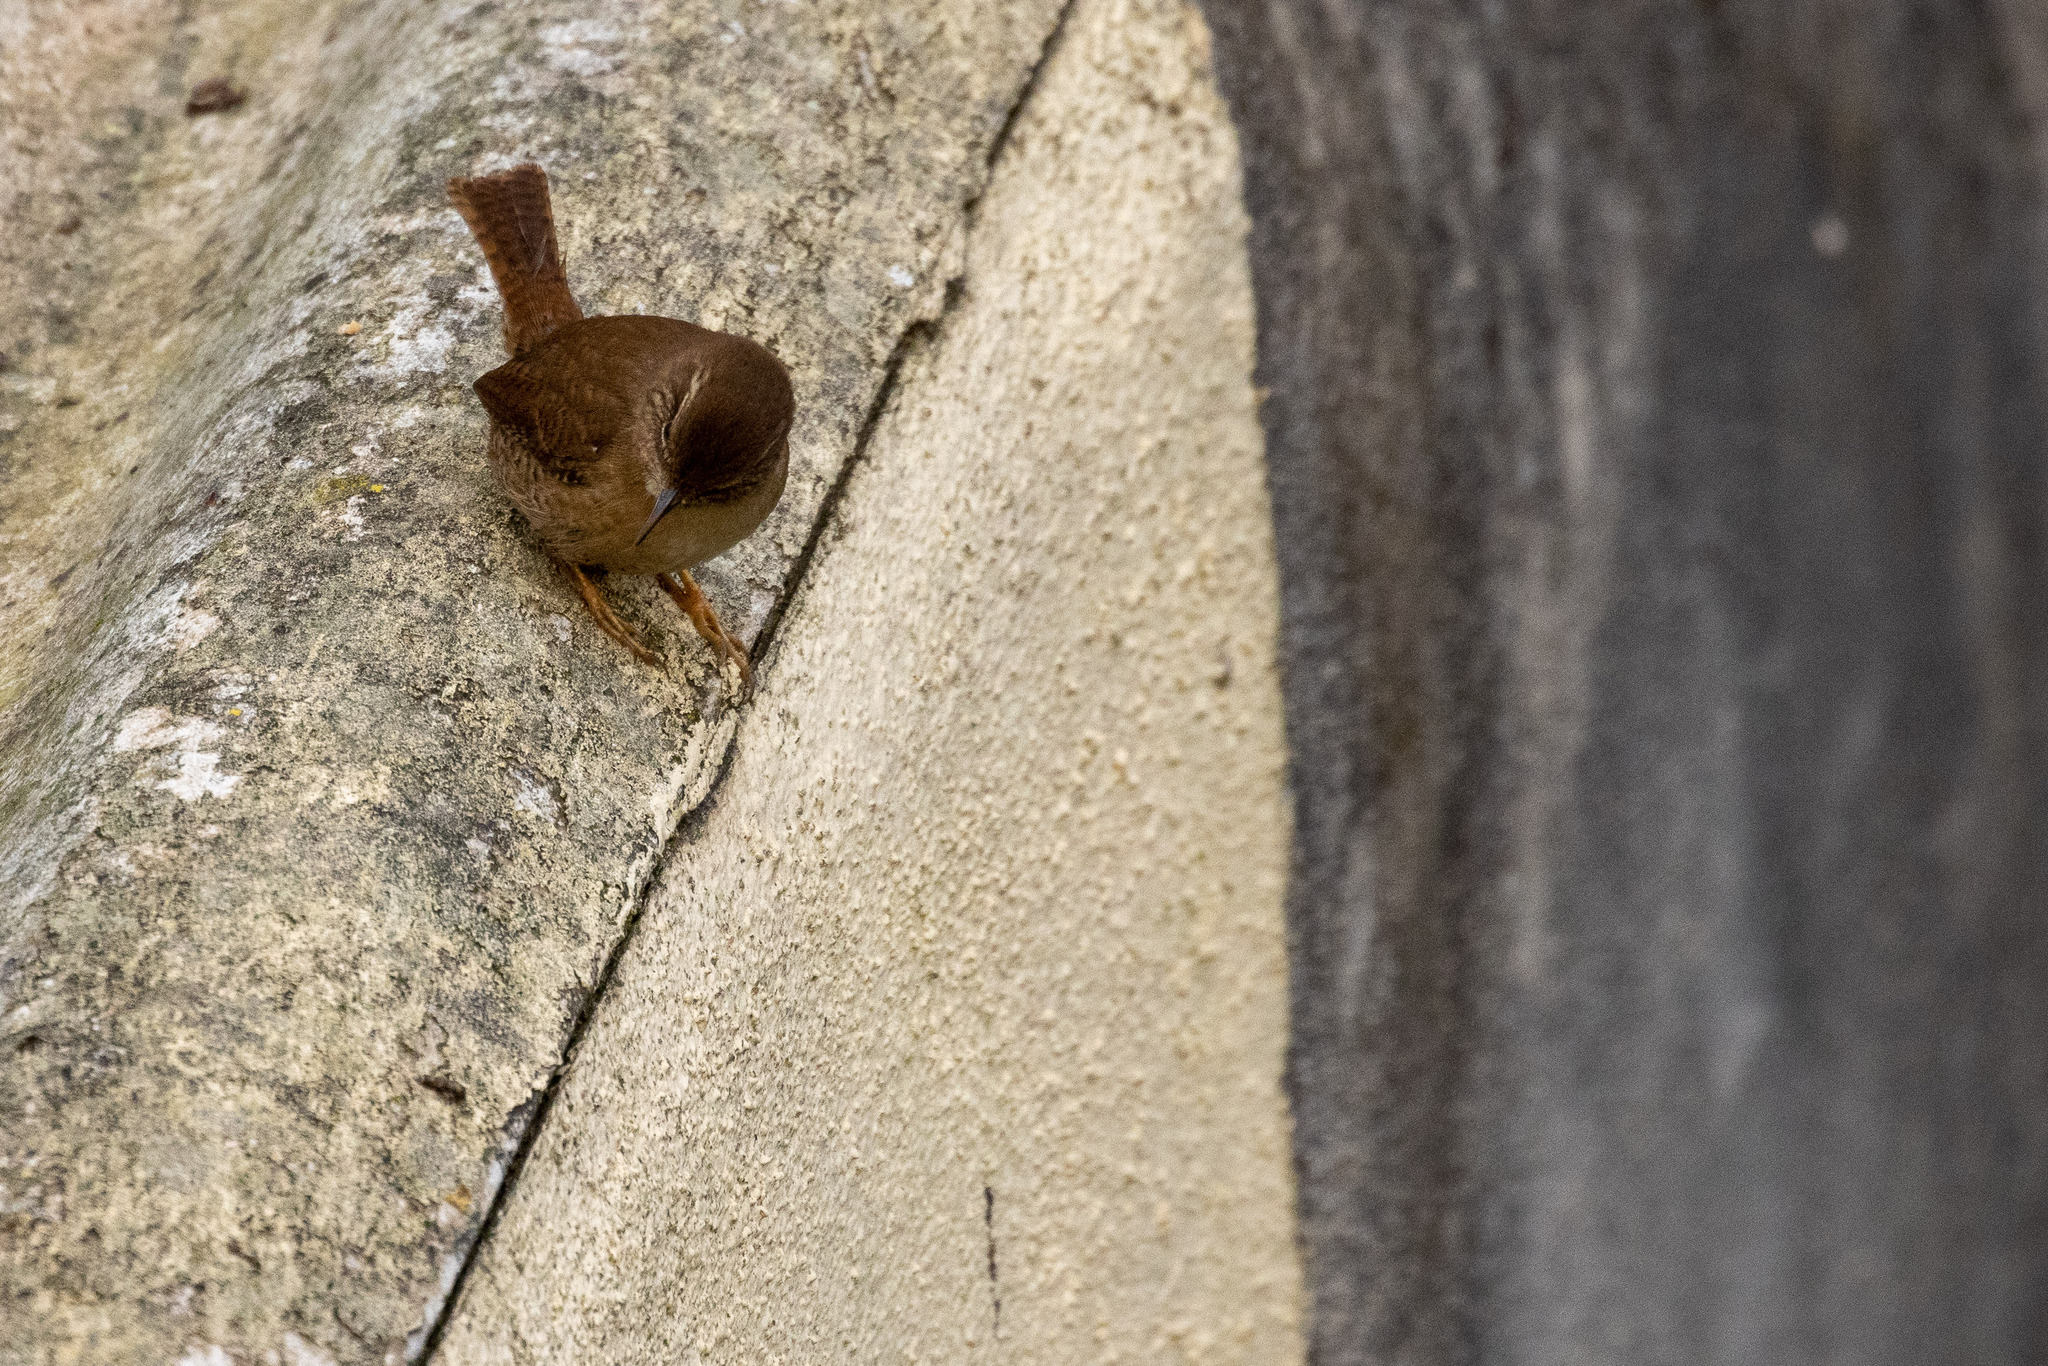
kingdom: Animalia
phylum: Chordata
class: Aves
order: Passeriformes
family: Troglodytidae
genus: Troglodytes
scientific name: Troglodytes troglodytes
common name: Eurasian wren
